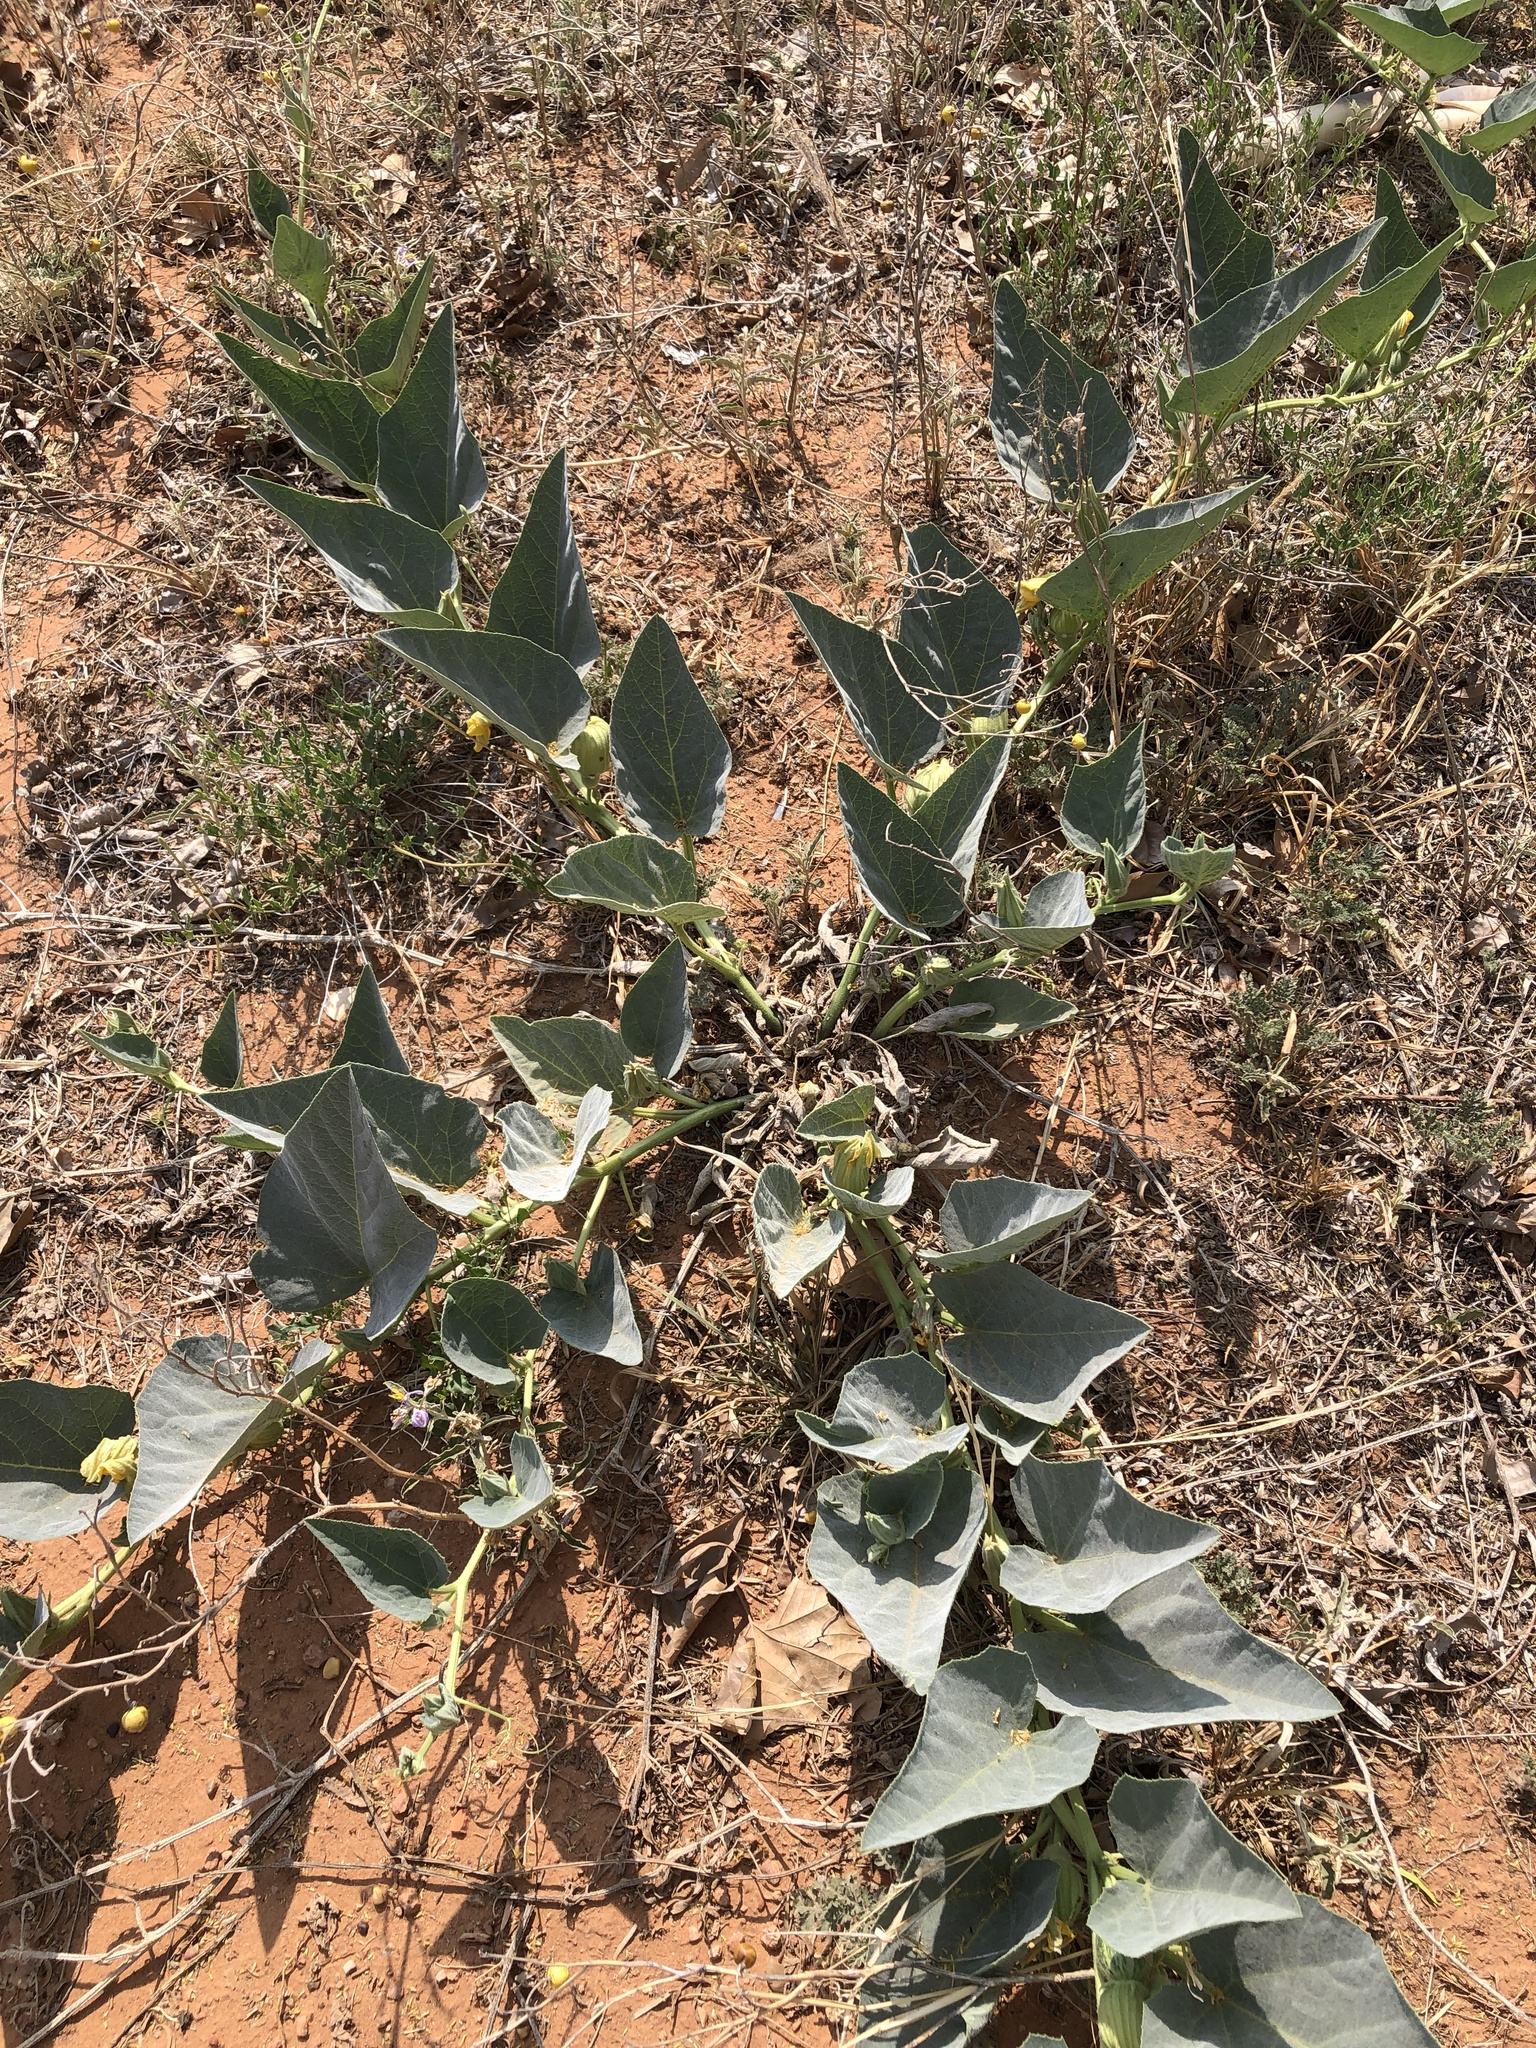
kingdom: Plantae
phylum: Tracheophyta
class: Magnoliopsida
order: Cucurbitales
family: Cucurbitaceae
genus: Cucurbita
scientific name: Cucurbita foetidissima
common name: Buffalo gourd
